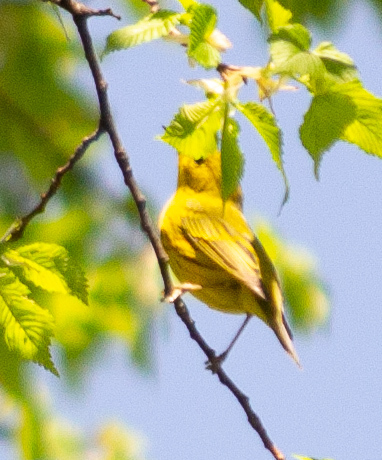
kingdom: Animalia
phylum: Chordata
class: Aves
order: Passeriformes
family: Parulidae
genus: Setophaga
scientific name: Setophaga petechia
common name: Yellow warbler
